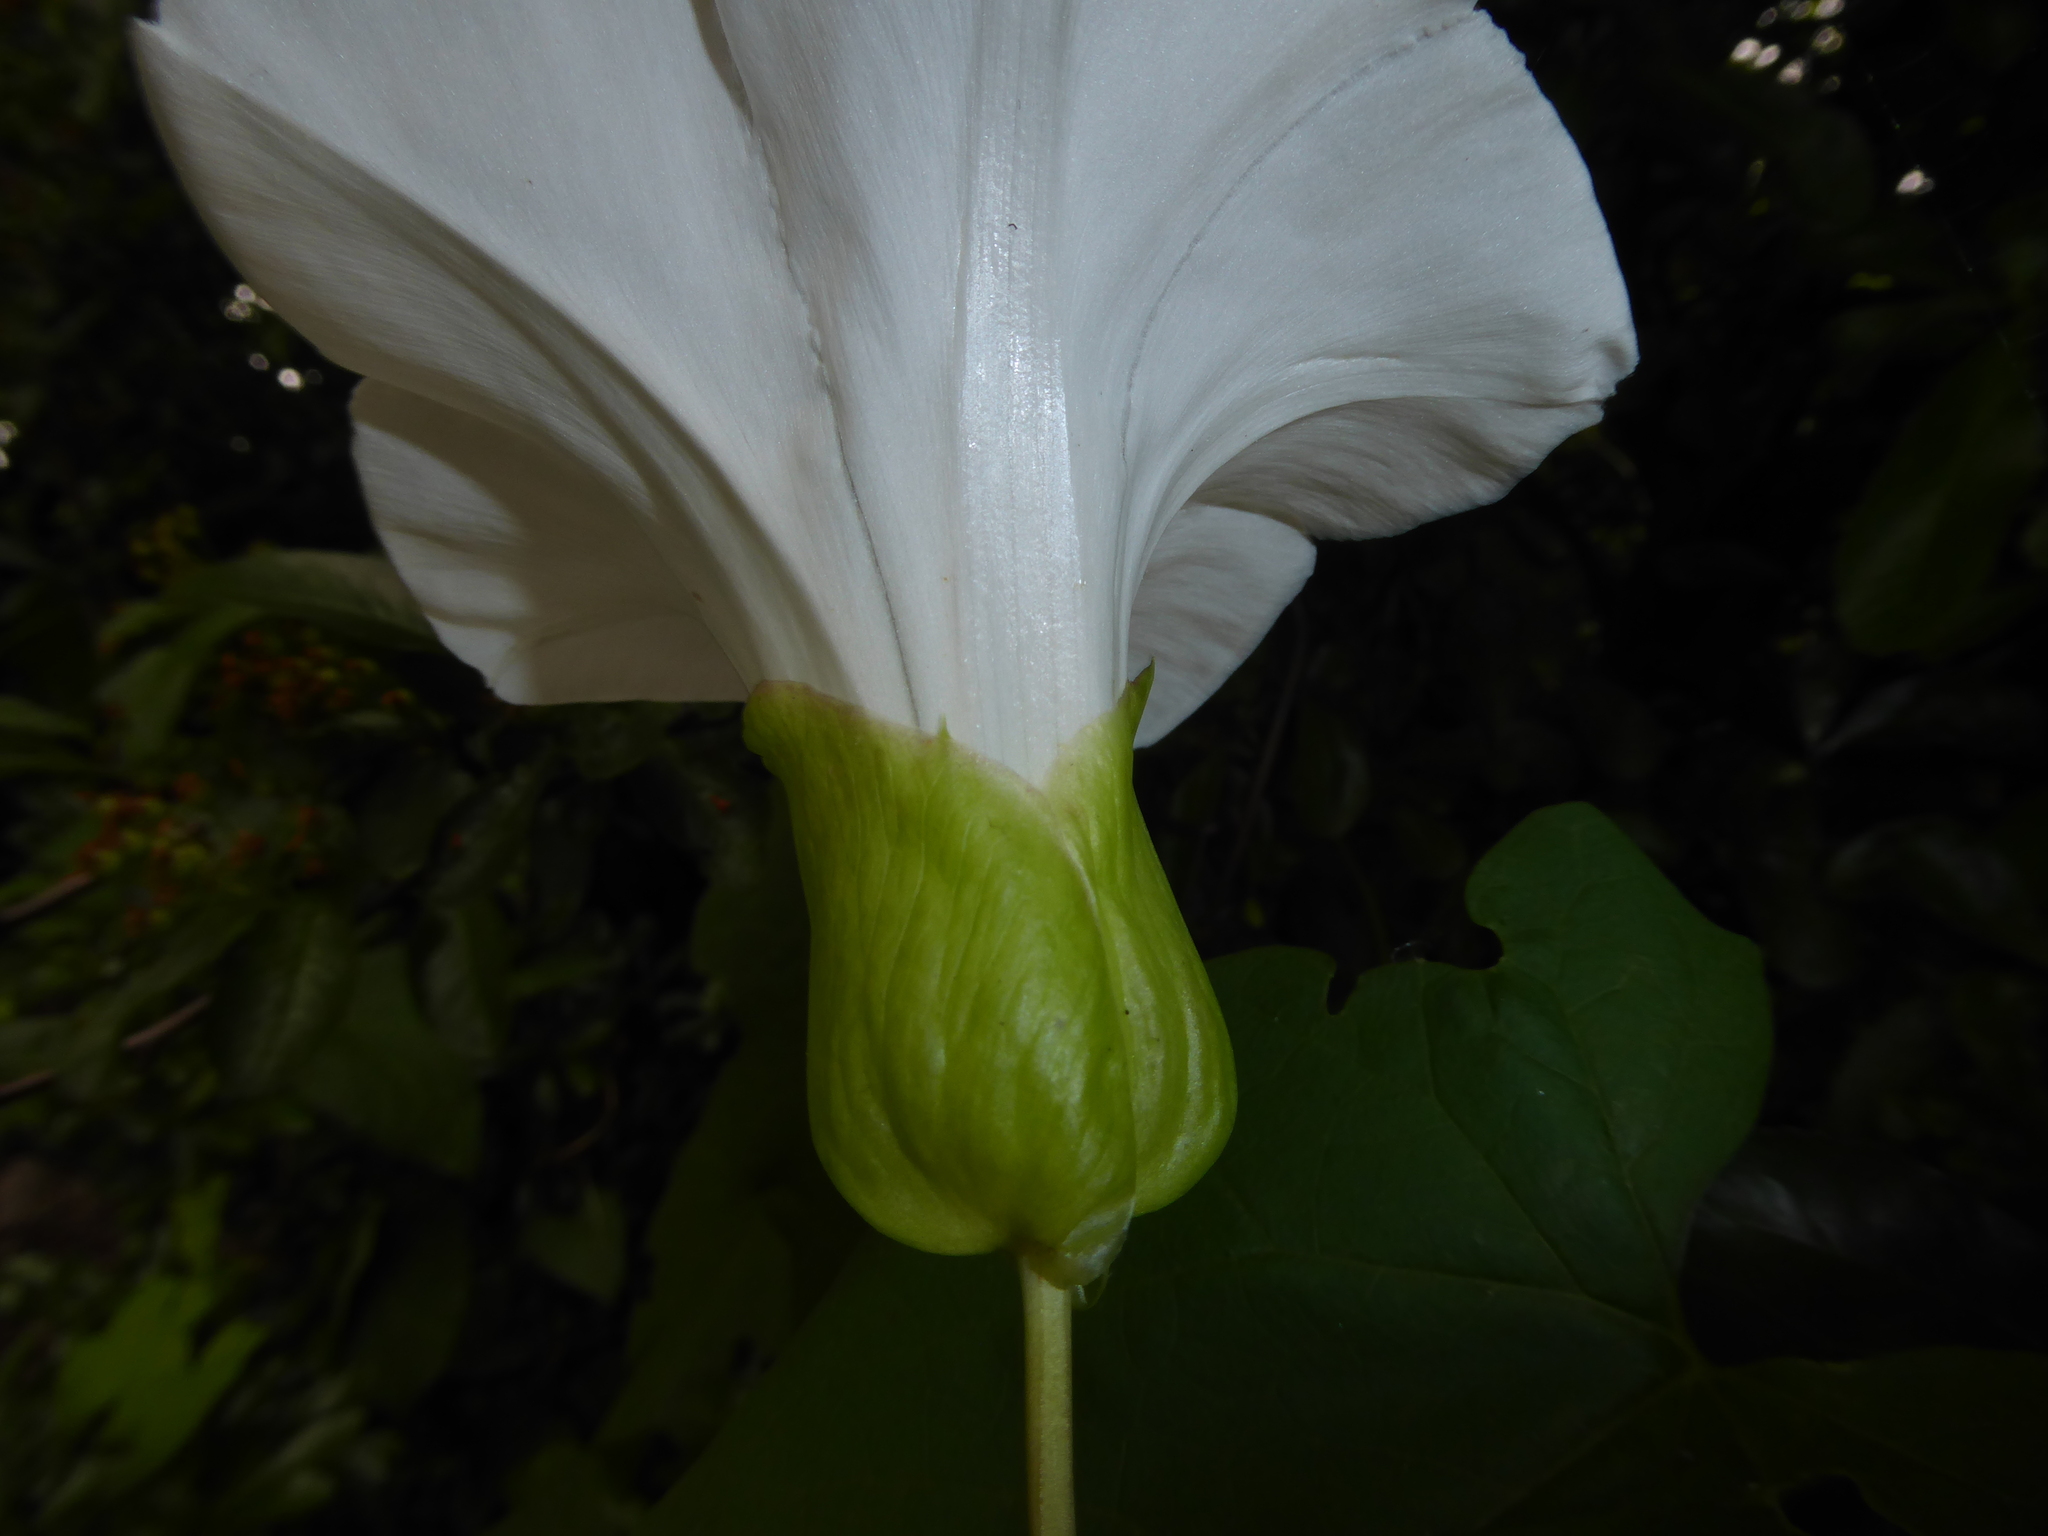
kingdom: Plantae
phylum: Tracheophyta
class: Magnoliopsida
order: Solanales
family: Convolvulaceae
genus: Calystegia
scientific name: Calystegia silvatica
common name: Large bindweed
